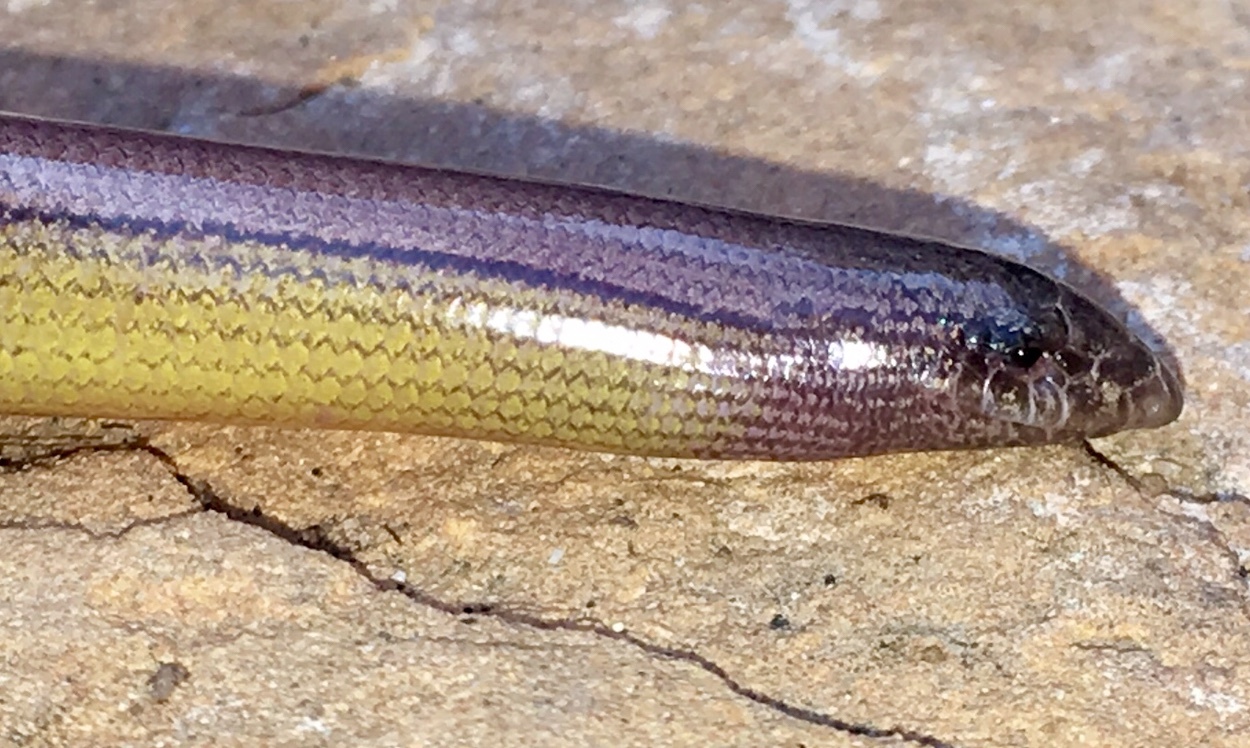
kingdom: Animalia
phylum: Chordata
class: Squamata
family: Anguidae
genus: Anniella
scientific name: Anniella stebbinsi
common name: Southern california legless lizard
